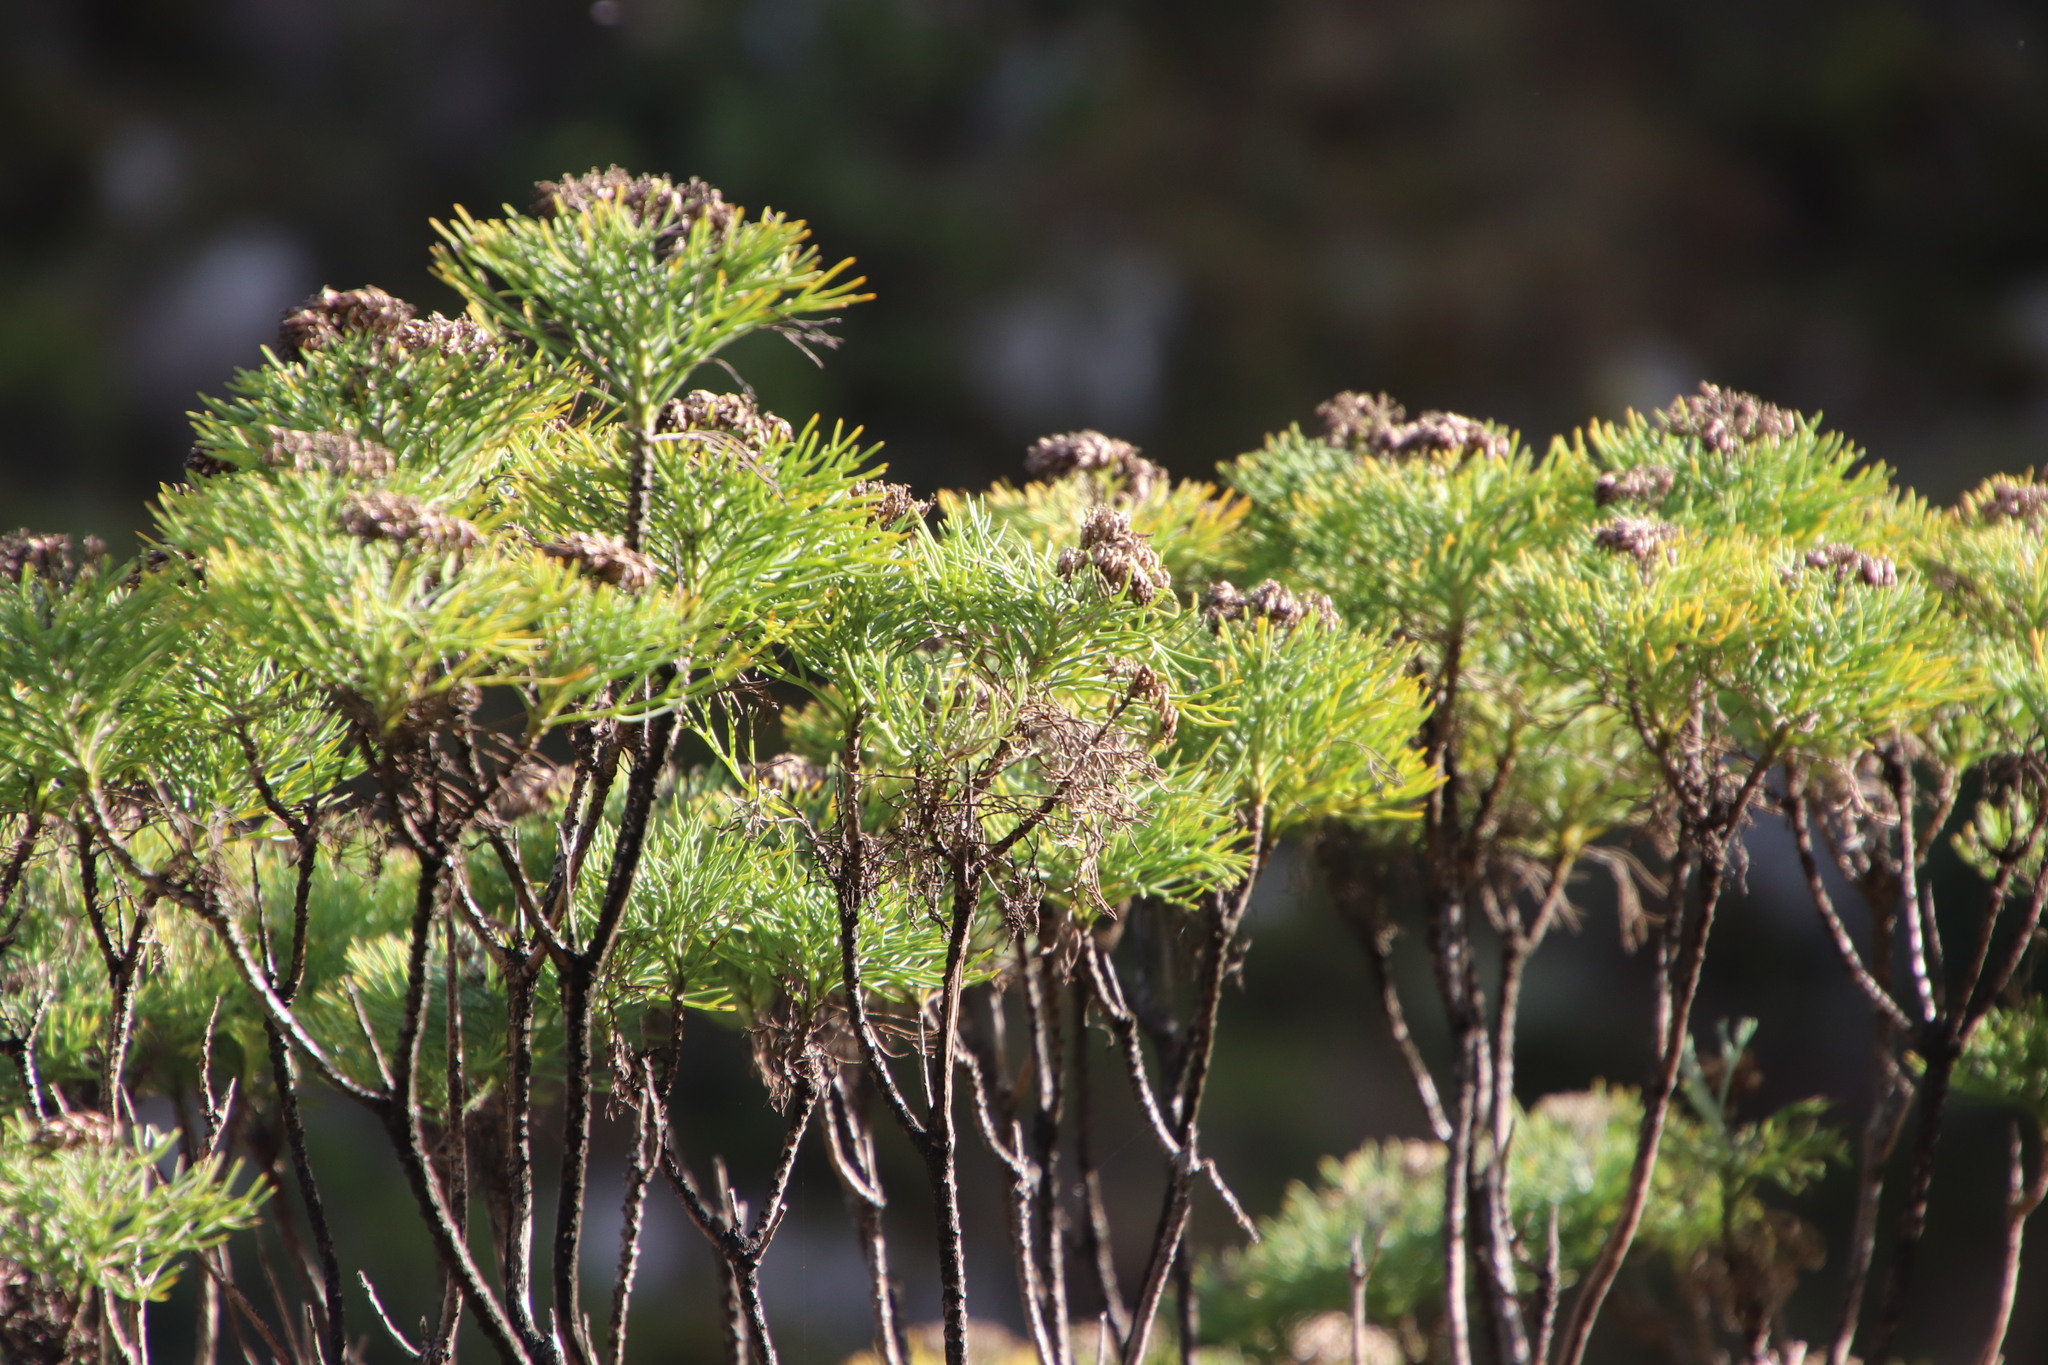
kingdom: Plantae
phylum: Tracheophyta
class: Magnoliopsida
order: Asterales
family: Asteraceae
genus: Hymenolepis
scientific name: Hymenolepis crithmifolia
